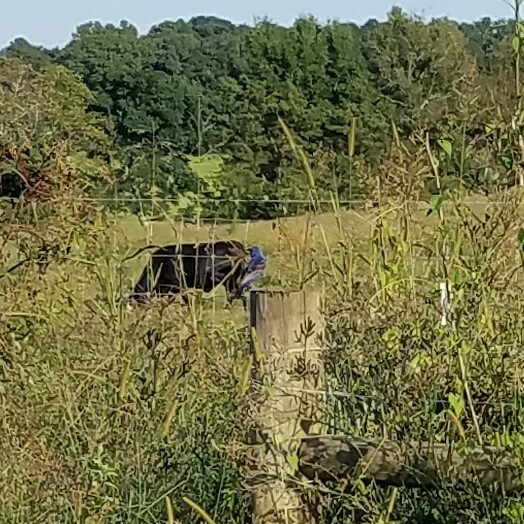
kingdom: Animalia
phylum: Chordata
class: Aves
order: Passeriformes
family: Cardinalidae
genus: Passerina
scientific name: Passerina caerulea
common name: Blue grosbeak
